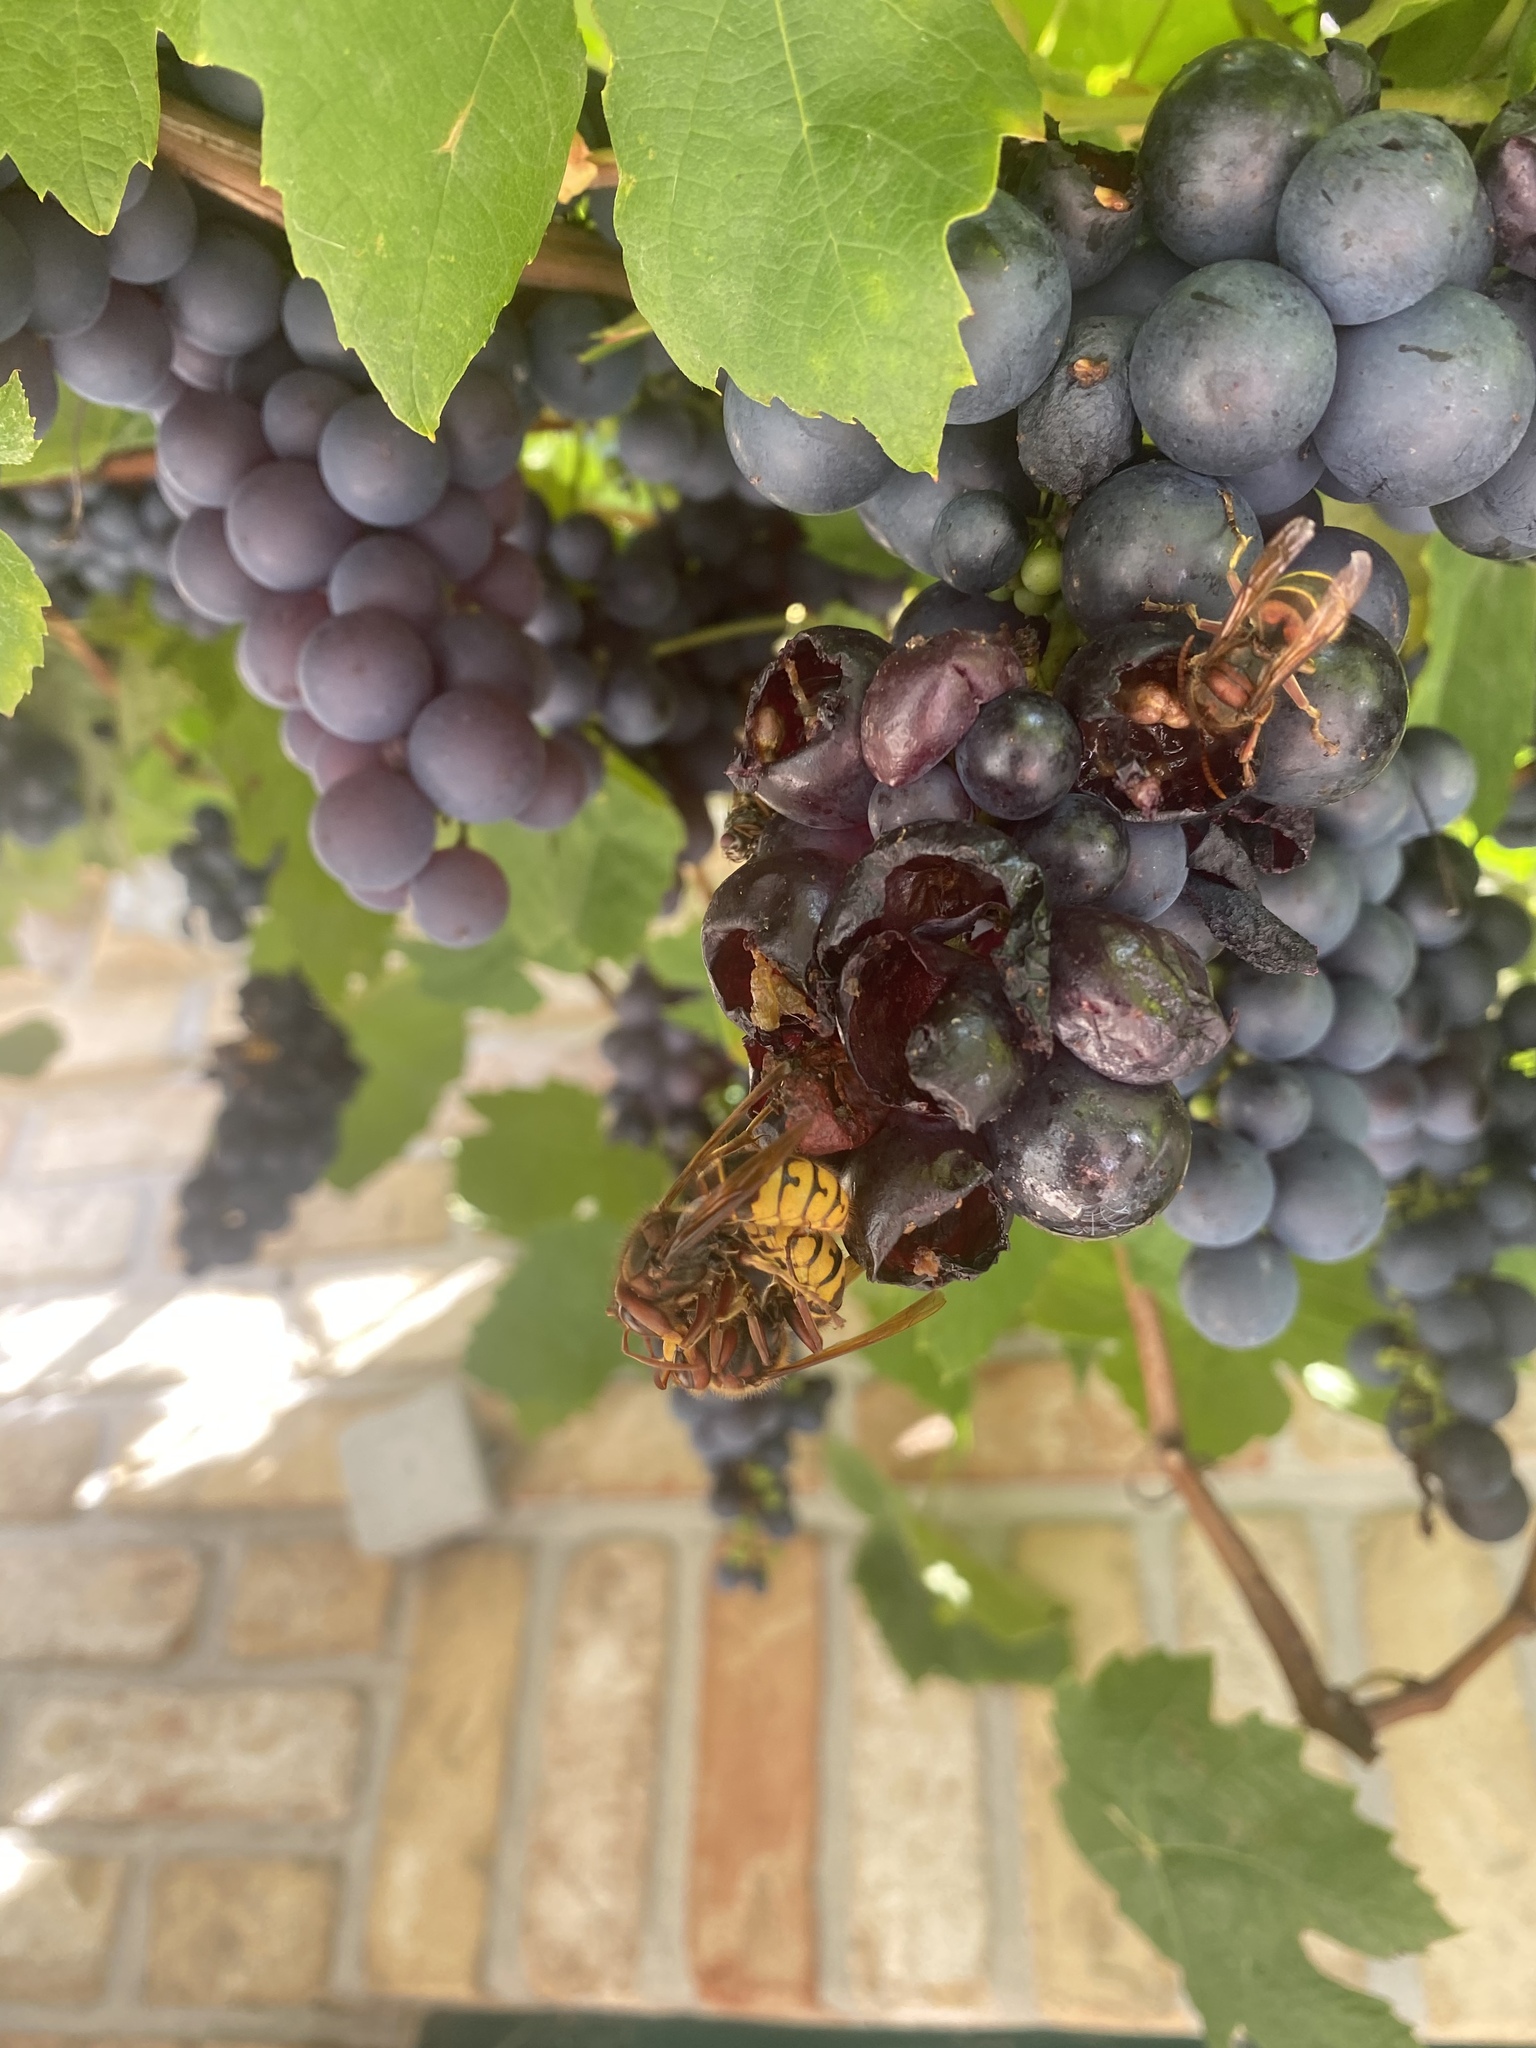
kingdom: Animalia
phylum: Arthropoda
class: Insecta
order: Hymenoptera
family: Vespidae
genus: Vespa
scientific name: Vespa crabro
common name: Hornet
